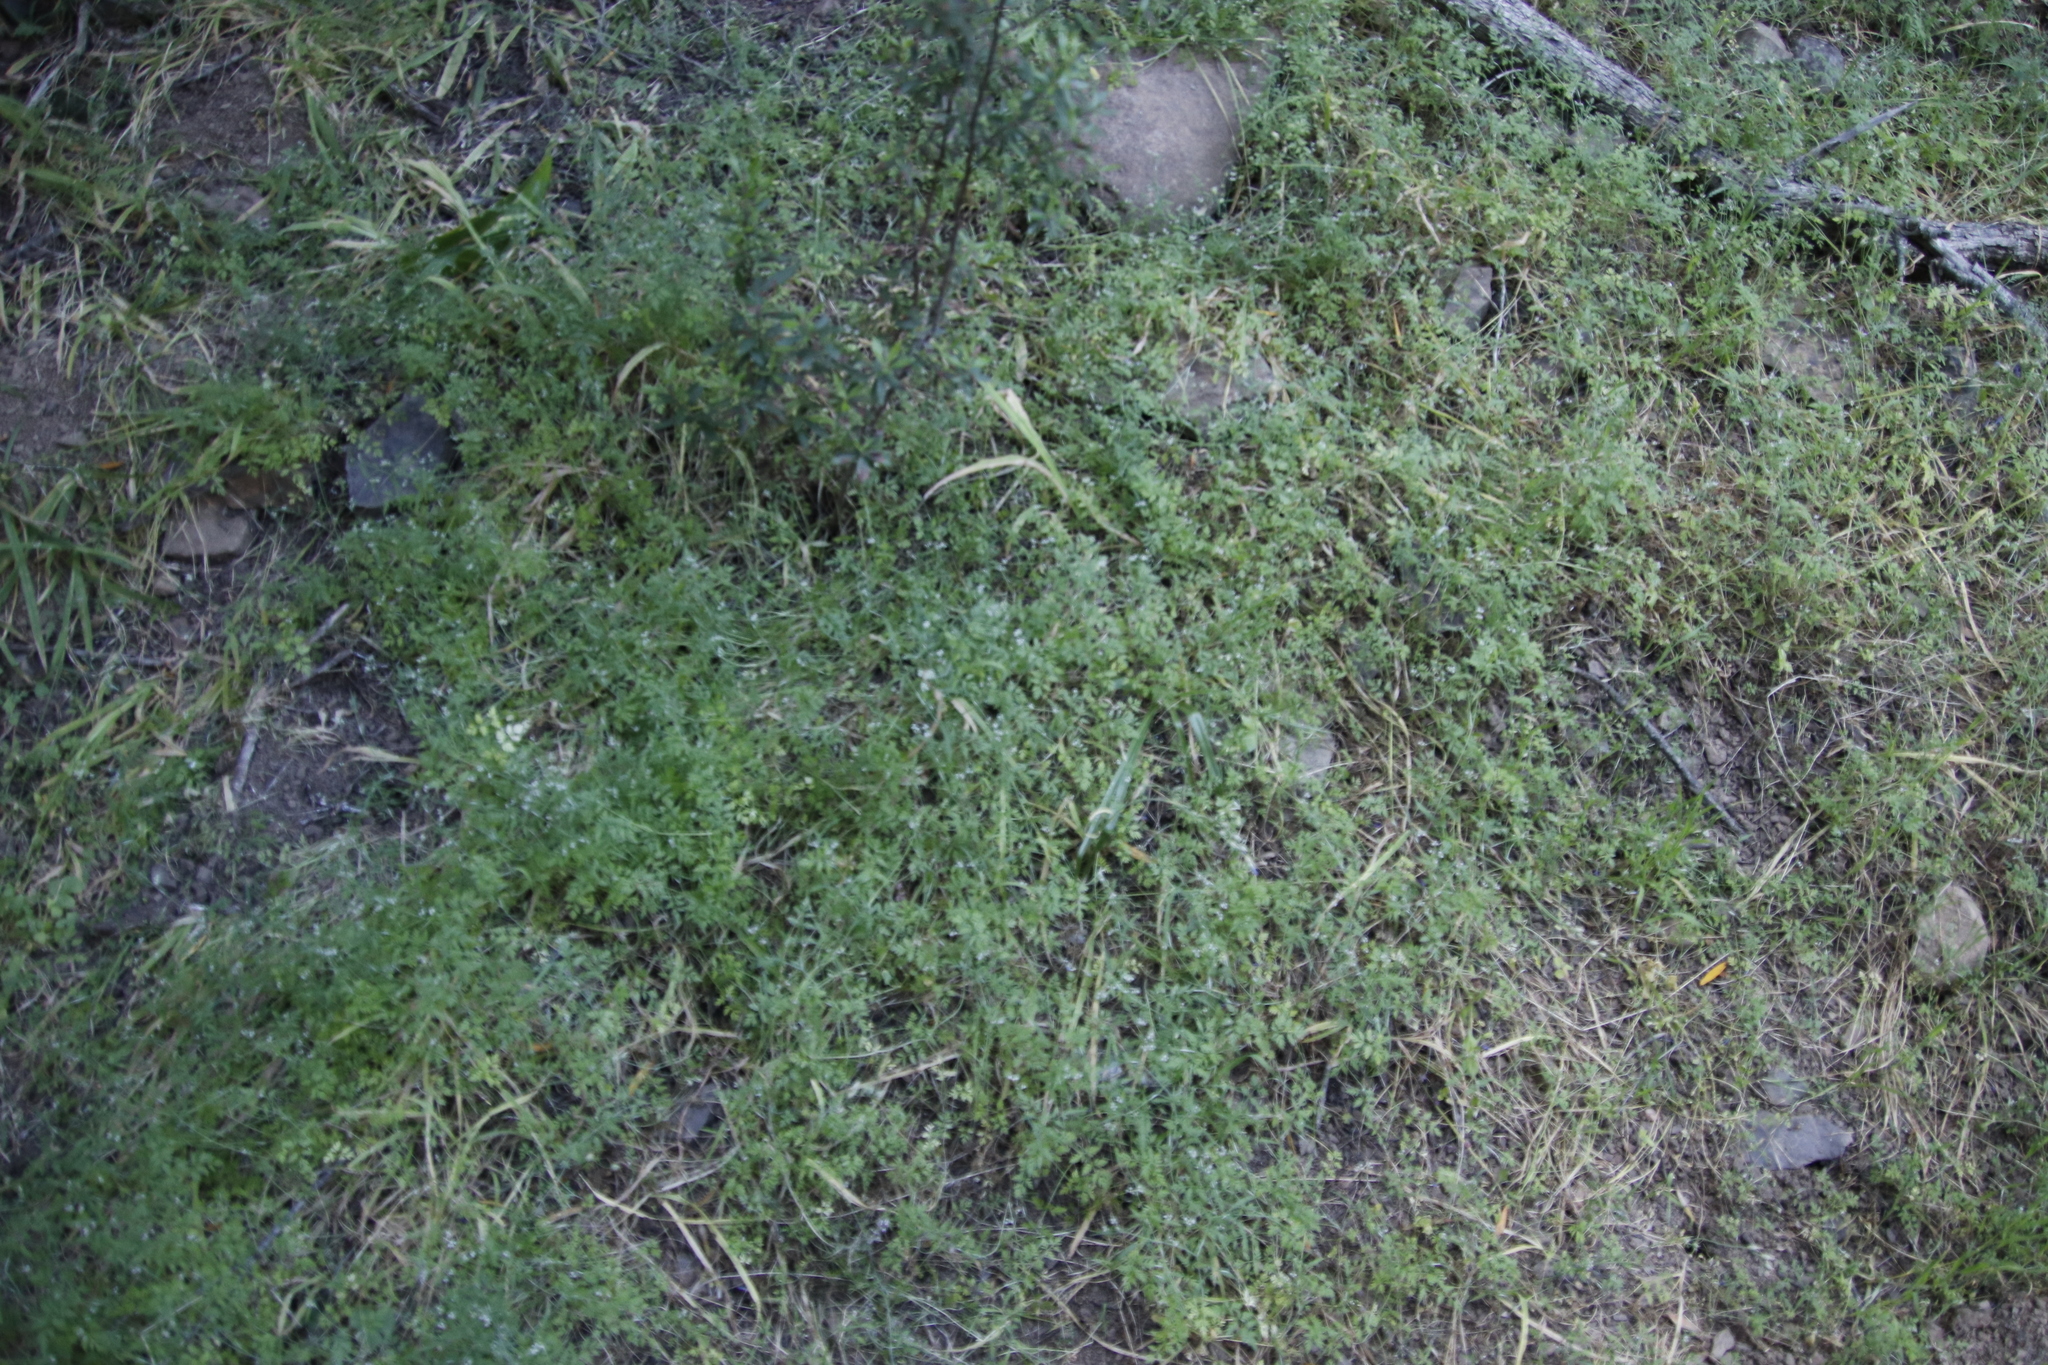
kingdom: Plantae
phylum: Tracheophyta
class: Magnoliopsida
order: Apiales
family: Apiaceae
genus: Torilis
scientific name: Torilis africana
